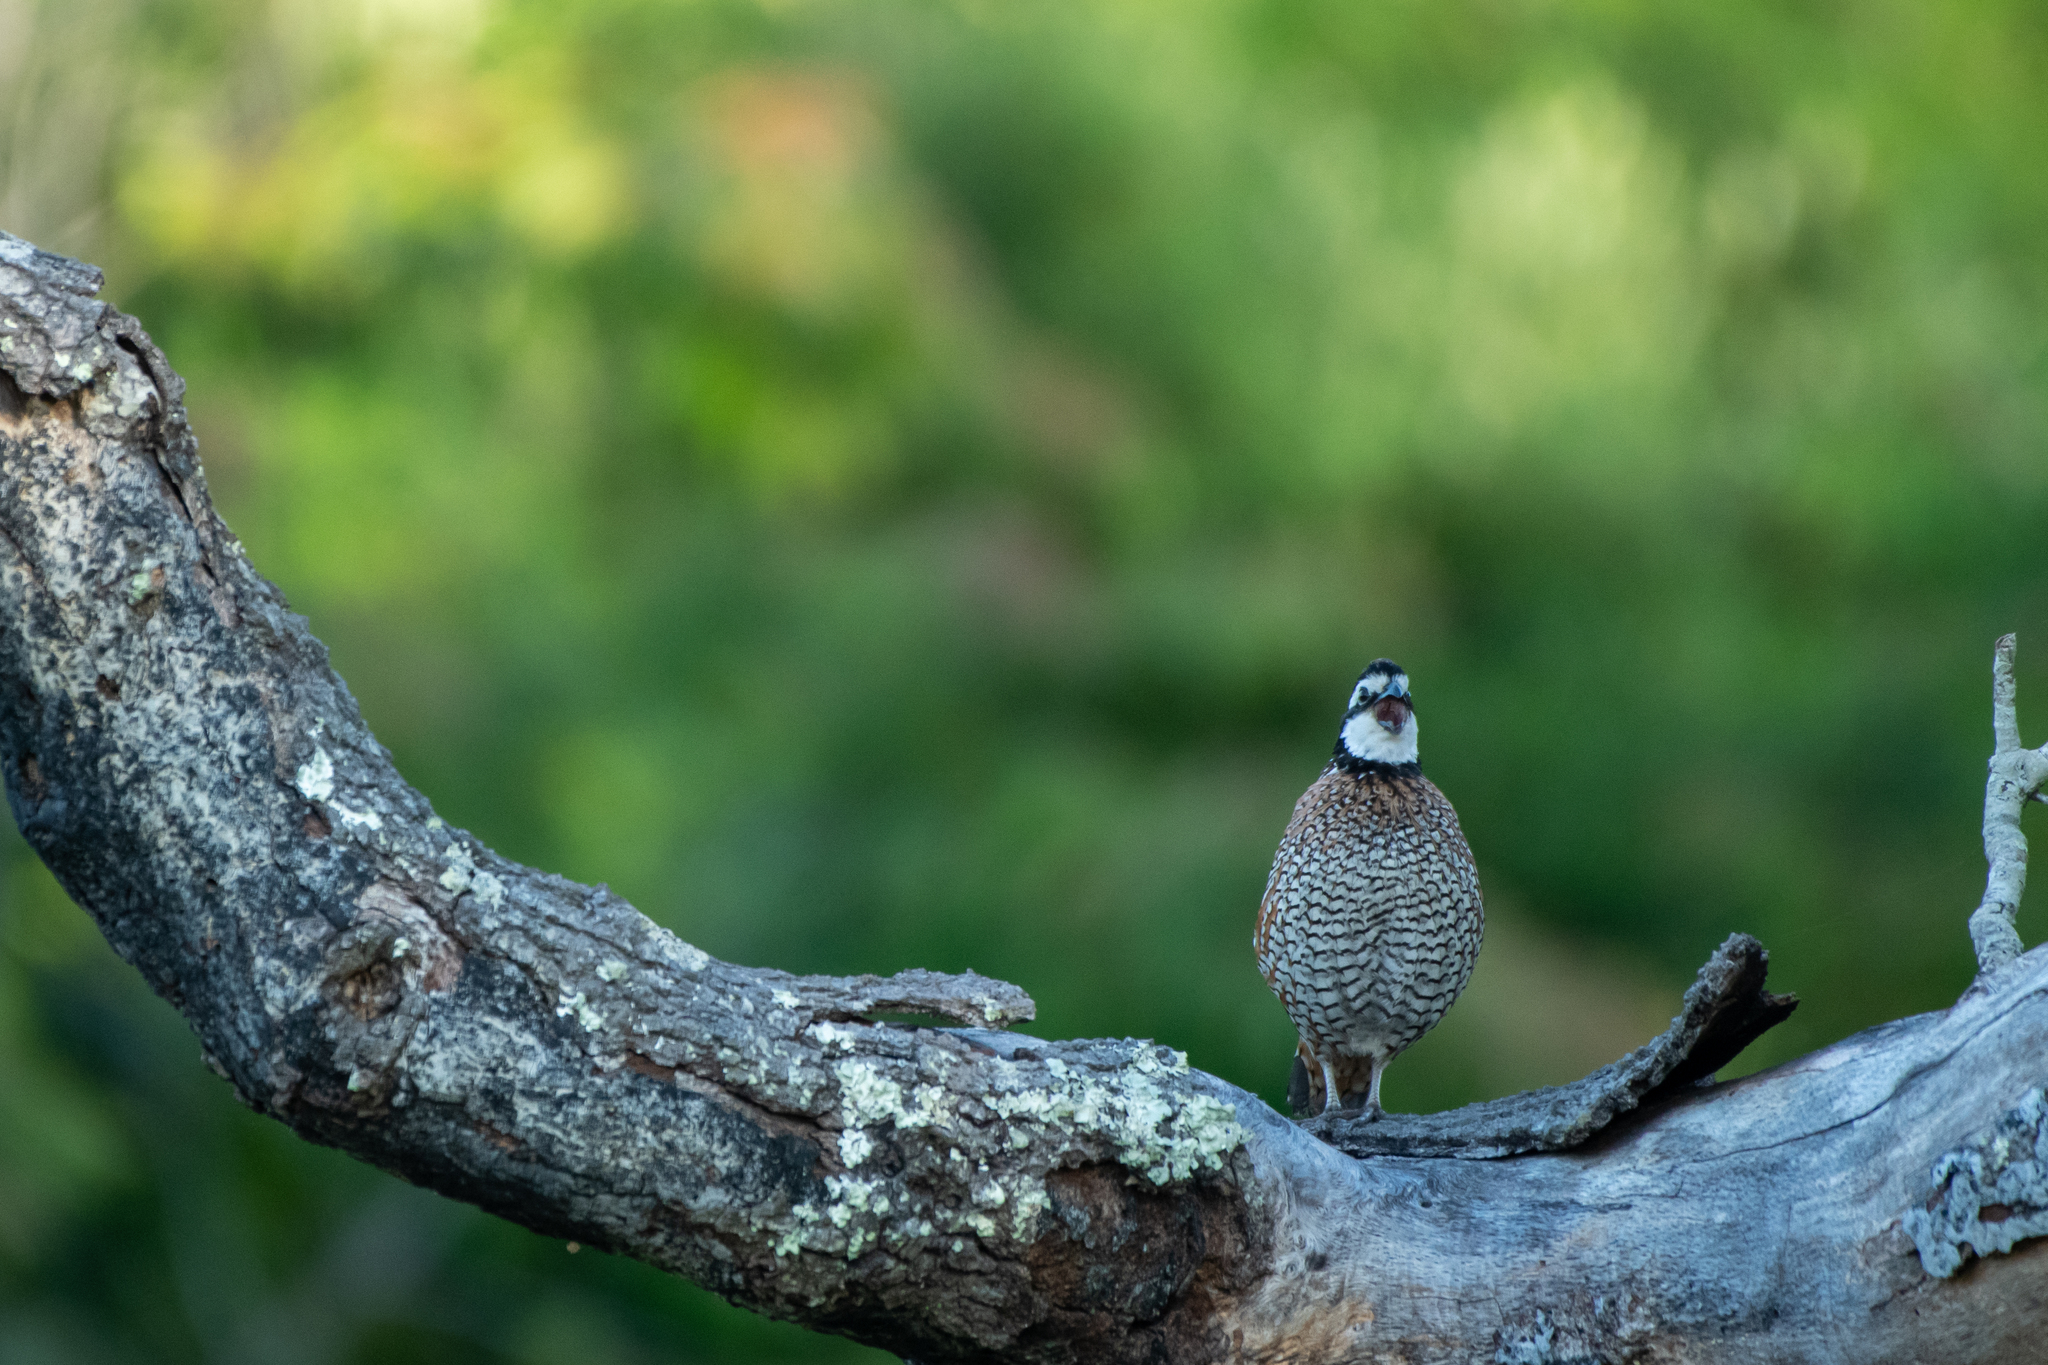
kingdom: Animalia
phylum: Chordata
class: Aves
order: Galliformes
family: Odontophoridae
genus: Colinus
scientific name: Colinus virginianus
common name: Northern bobwhite
